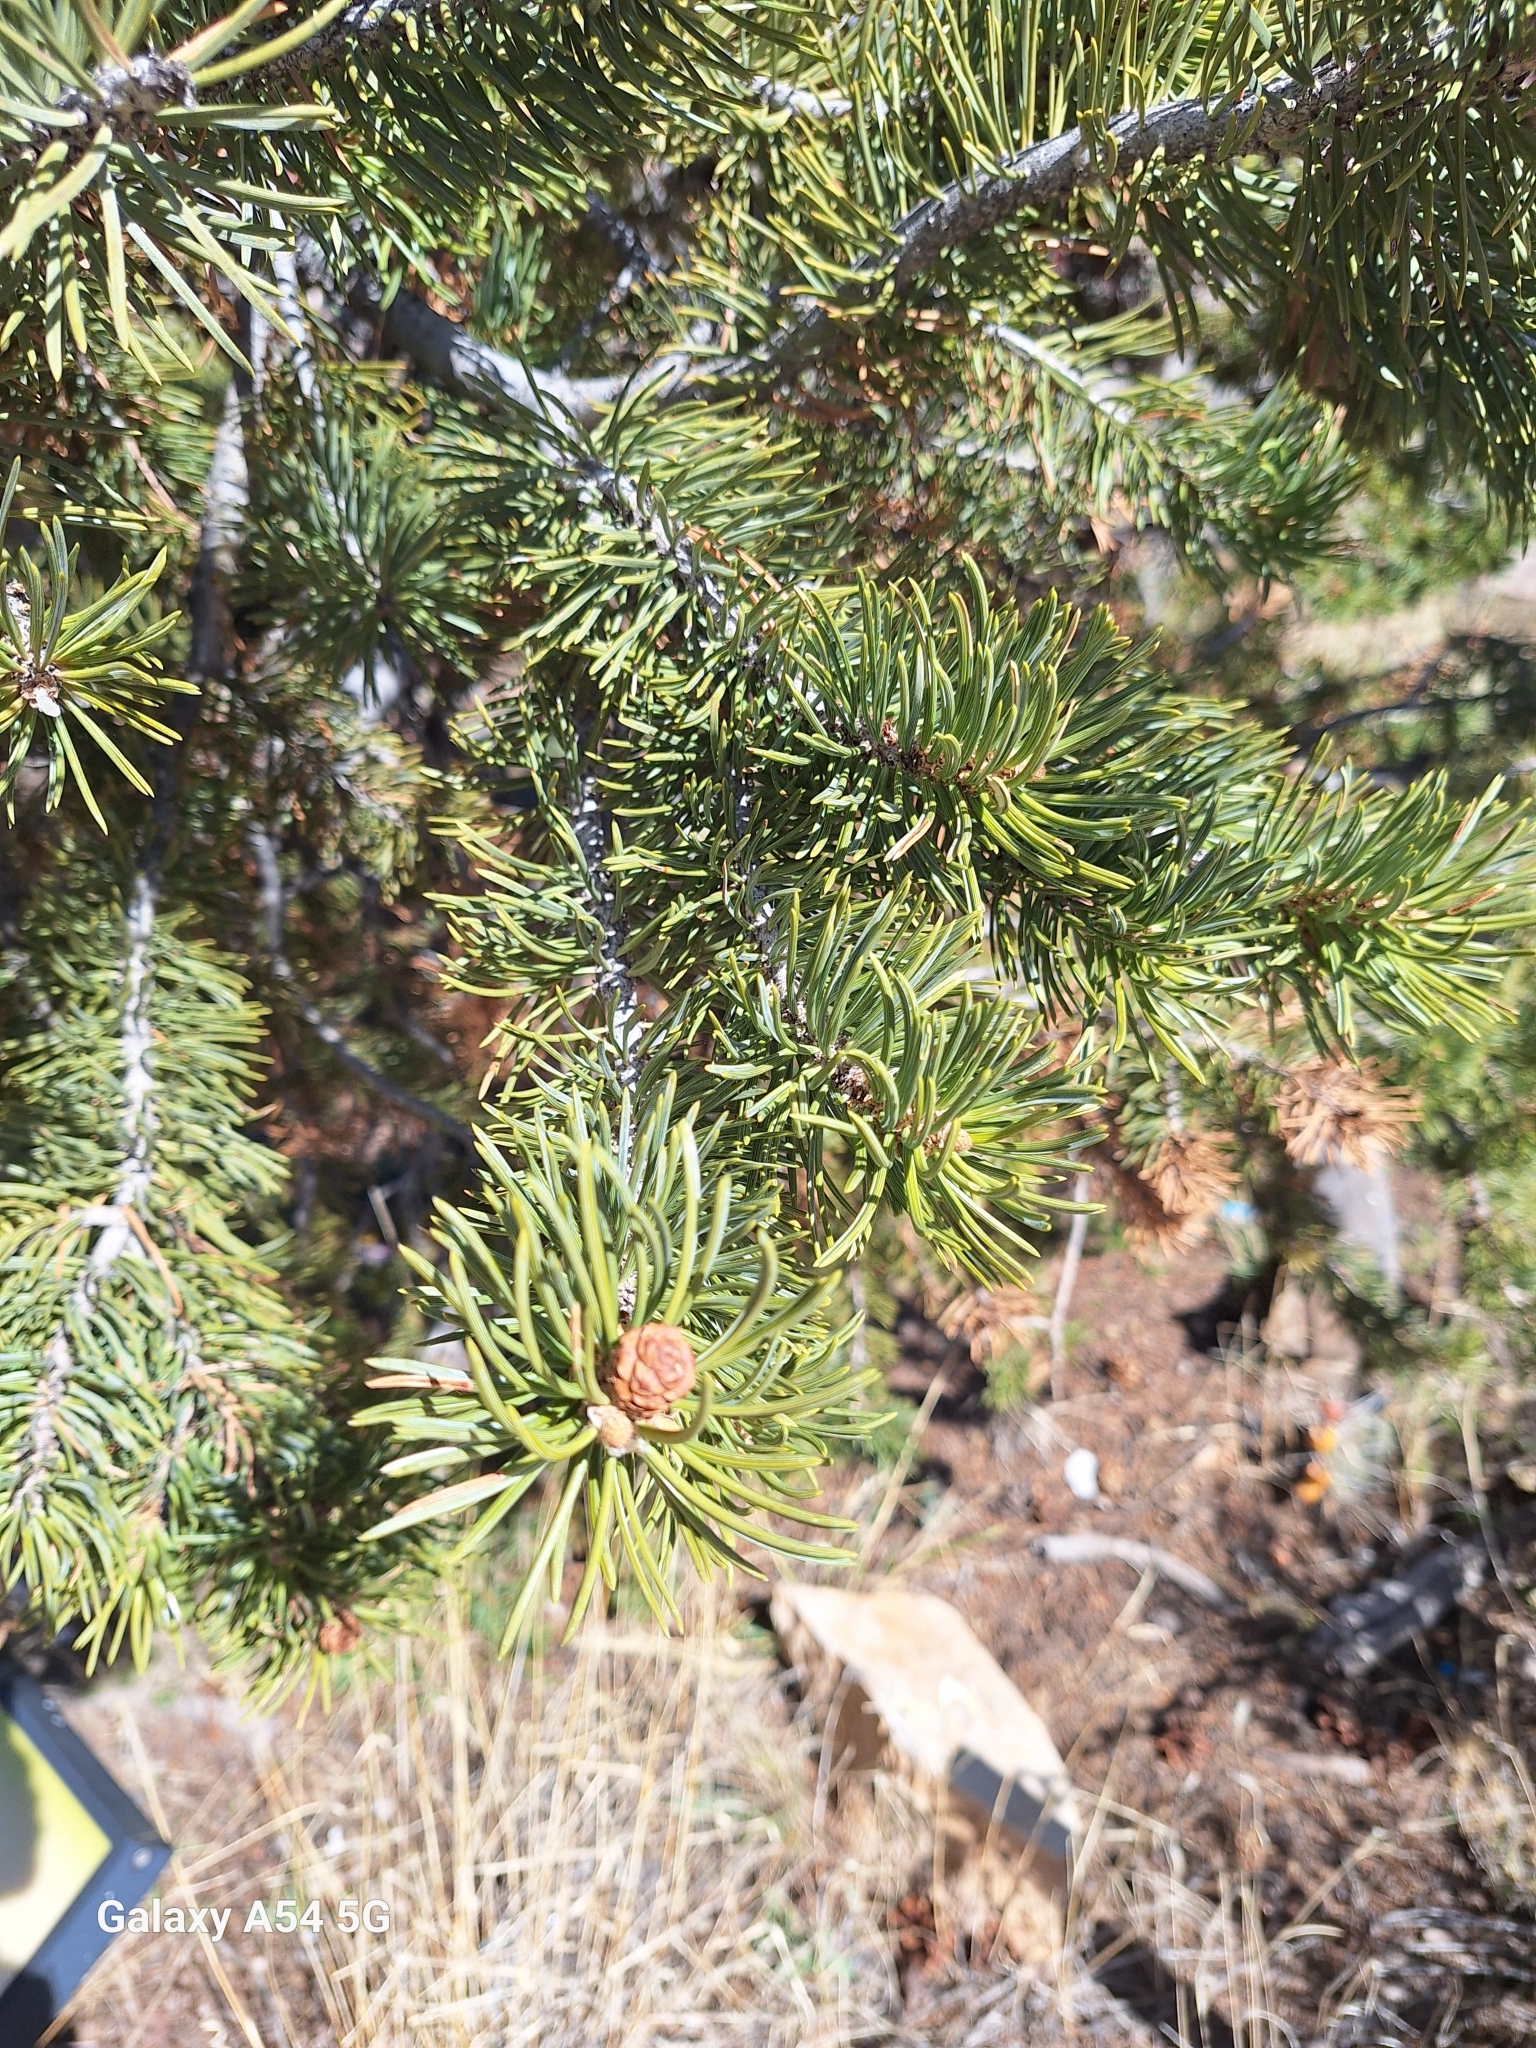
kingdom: Plantae
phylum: Tracheophyta
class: Pinopsida
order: Pinales
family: Pinaceae
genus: Pinus
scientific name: Pinus edulis
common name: Colorado pinyon
